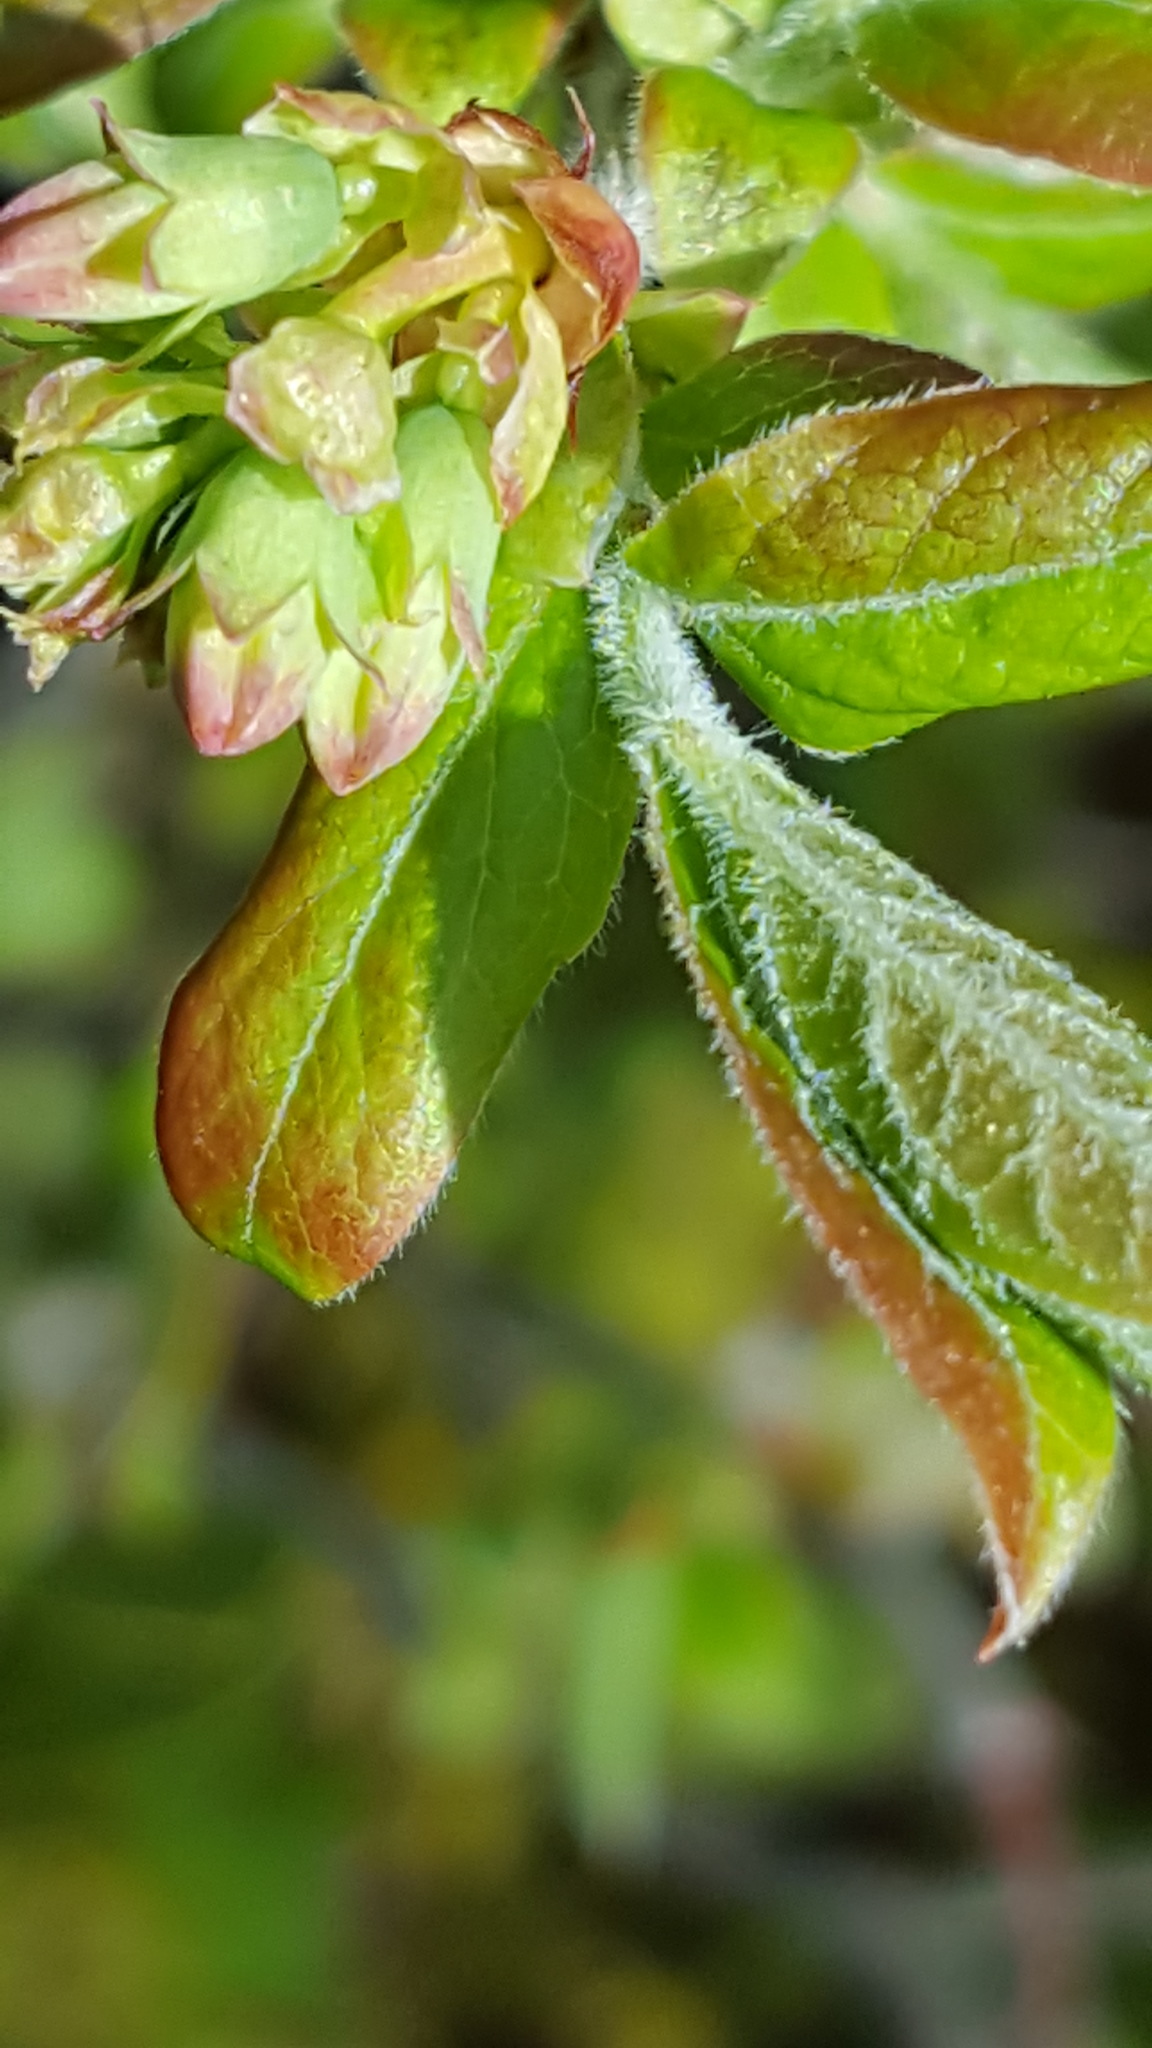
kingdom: Plantae
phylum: Tracheophyta
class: Magnoliopsida
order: Ericales
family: Ericaceae
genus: Vaccinium
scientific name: Vaccinium myrtilloides
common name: Canada blueberry
